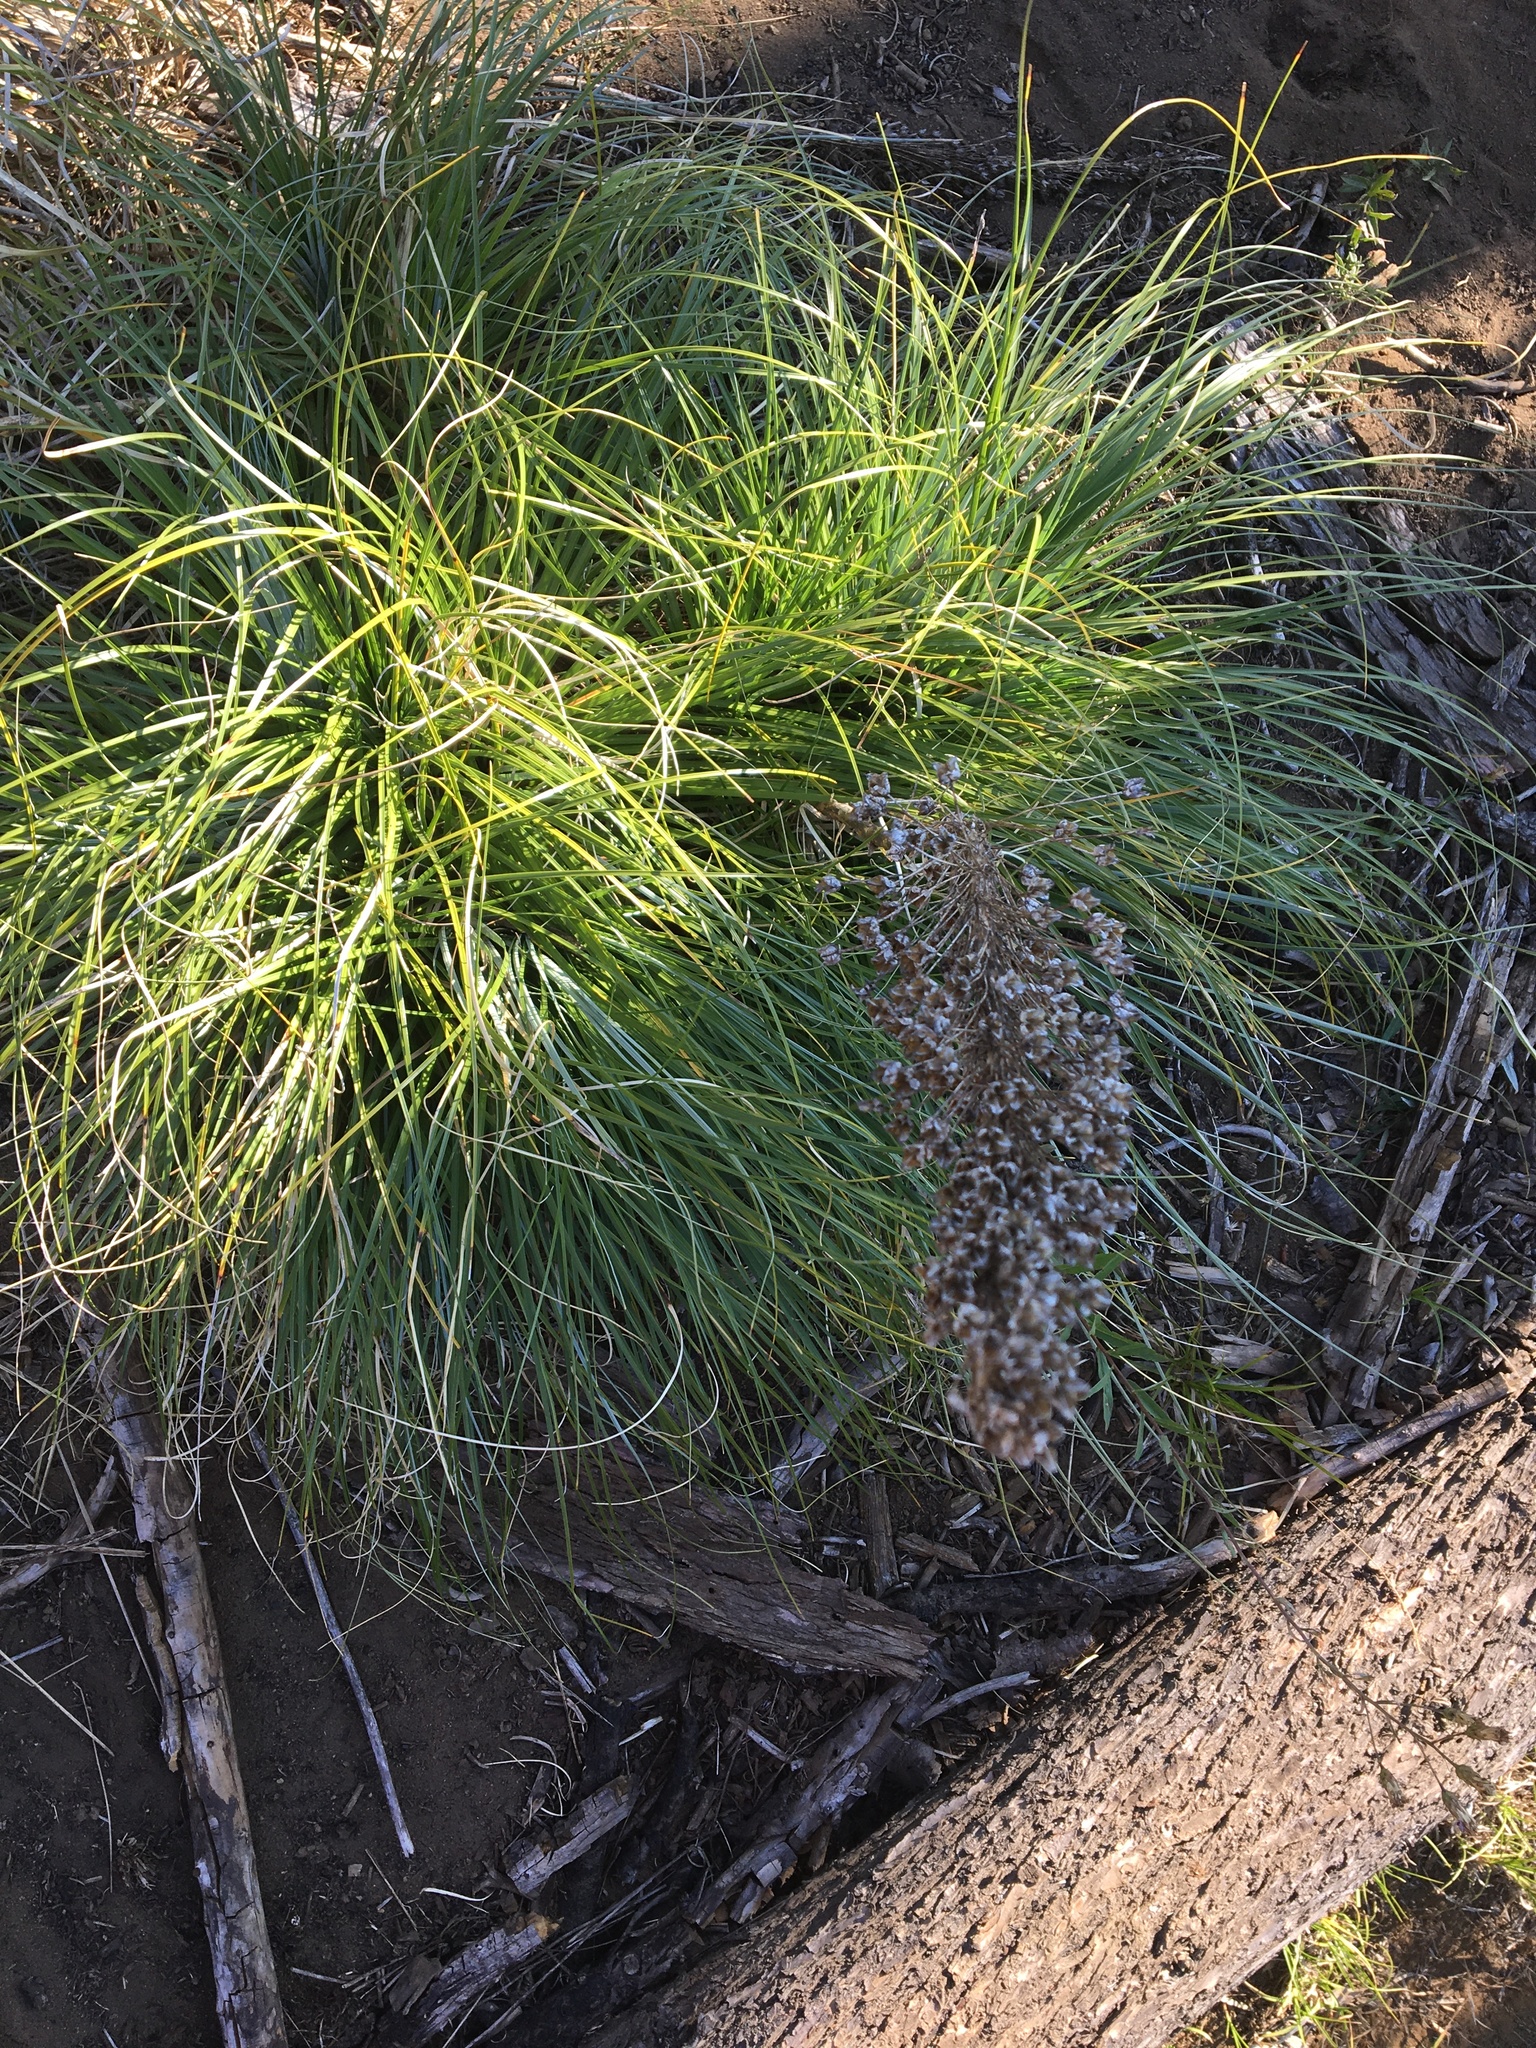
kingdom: Plantae
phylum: Tracheophyta
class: Liliopsida
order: Liliales
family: Melanthiaceae
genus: Xerophyllum
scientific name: Xerophyllum tenax
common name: Bear-grass
